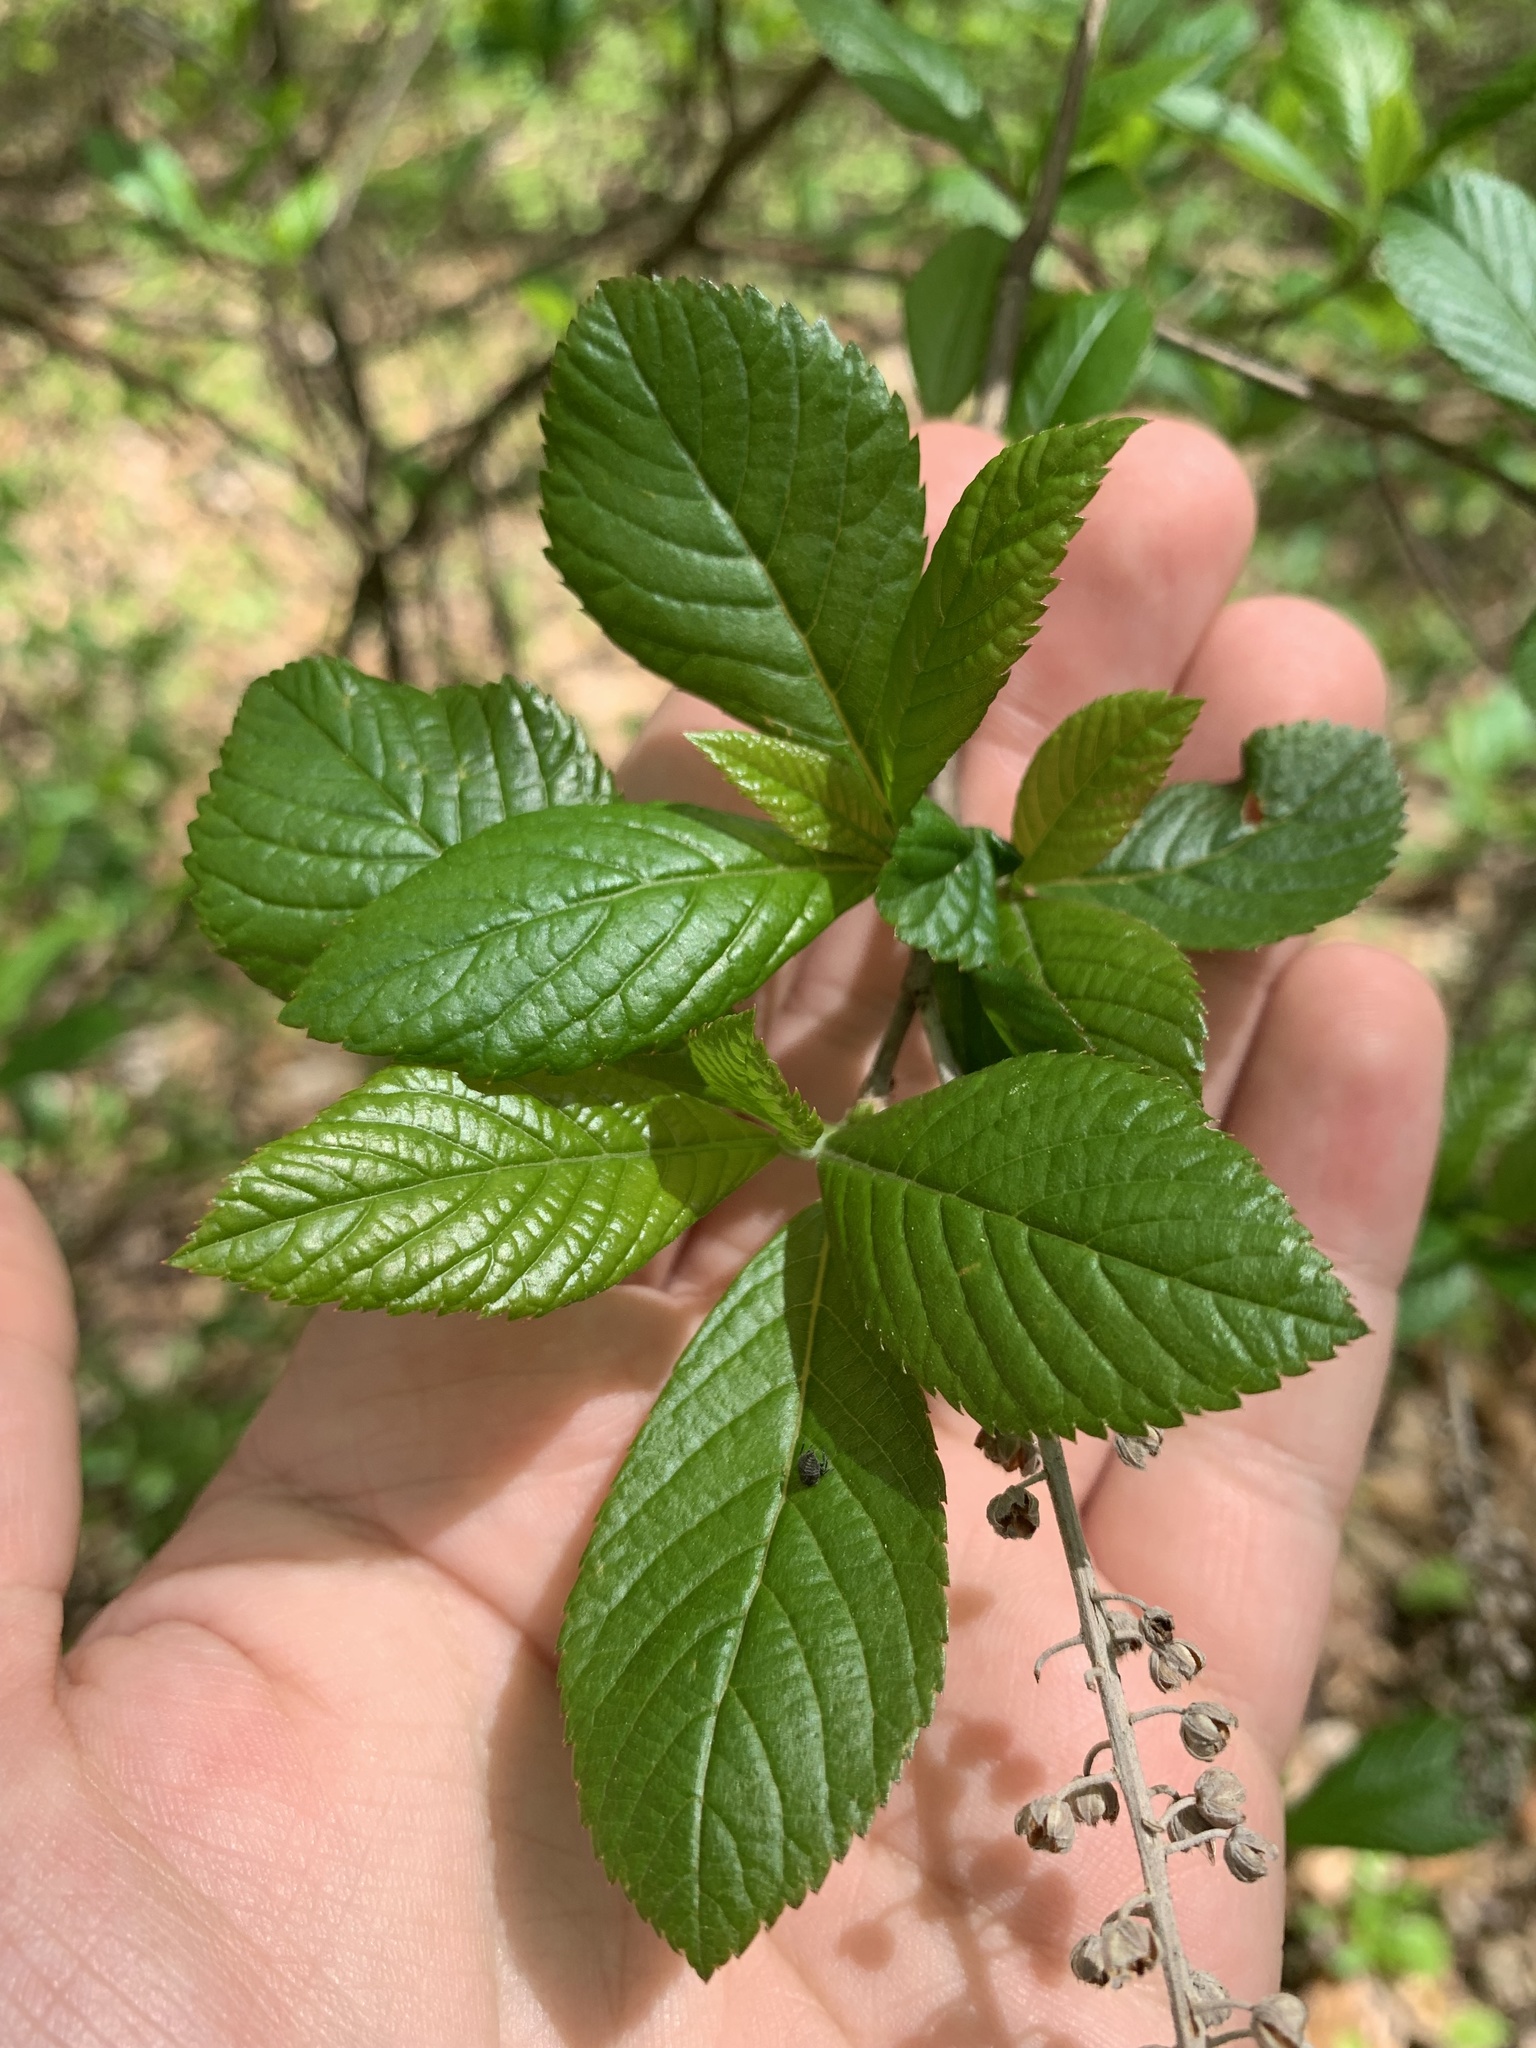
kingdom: Plantae
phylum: Tracheophyta
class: Magnoliopsida
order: Ericales
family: Clethraceae
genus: Clethra
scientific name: Clethra alnifolia
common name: Sweet pepperbush
